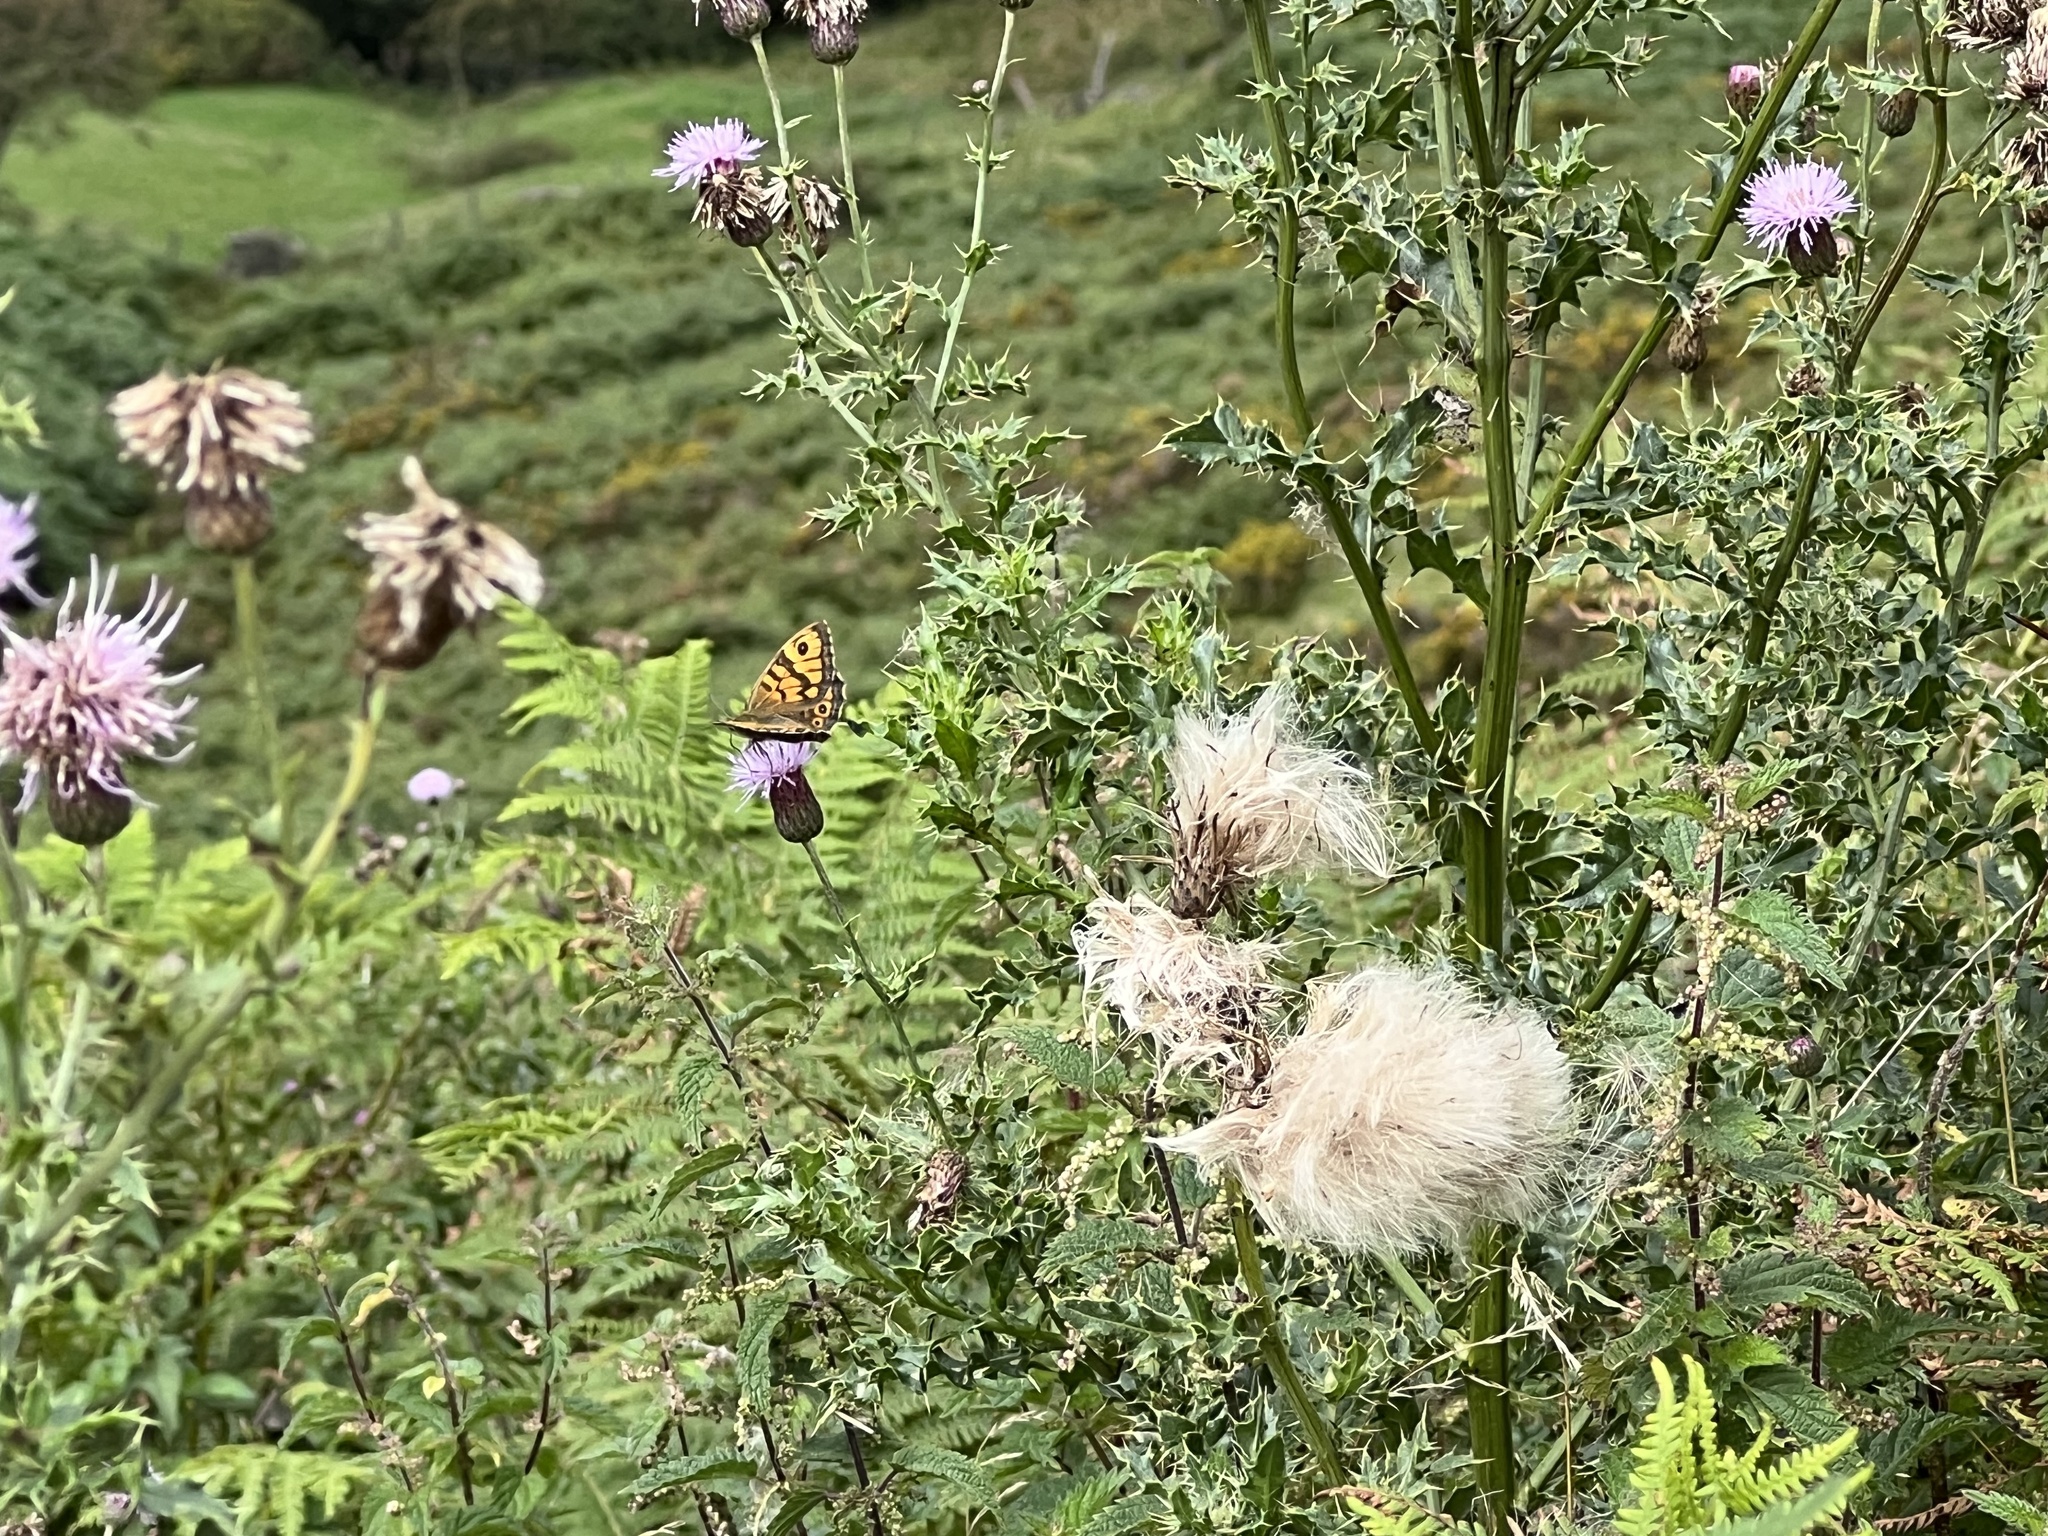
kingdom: Animalia
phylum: Arthropoda
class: Insecta
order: Lepidoptera
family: Nymphalidae
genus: Pararge
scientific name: Pararge Lasiommata megera
